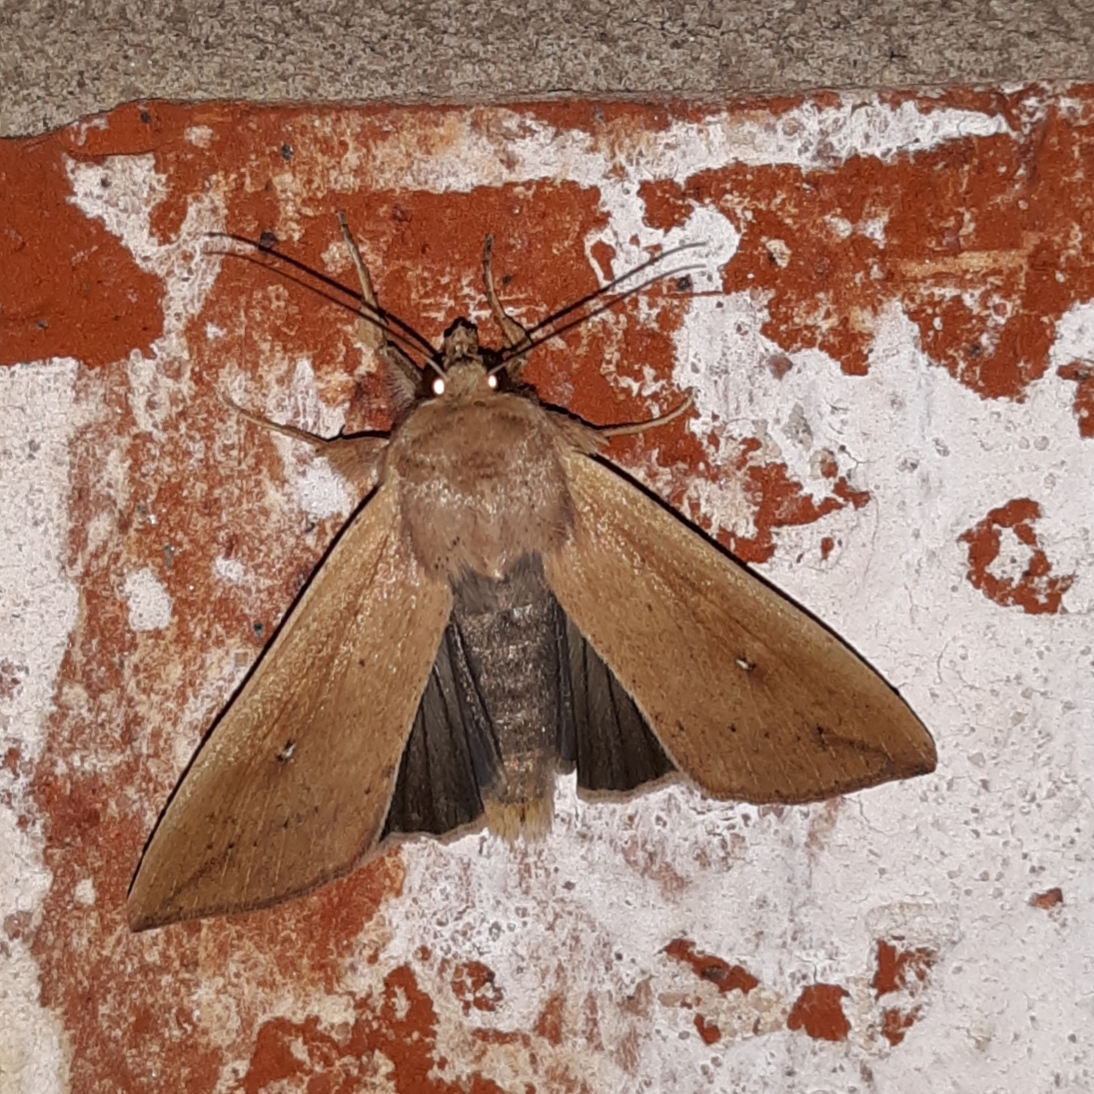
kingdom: Animalia
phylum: Arthropoda
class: Insecta
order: Lepidoptera
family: Noctuidae
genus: Mythimna
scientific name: Mythimna unipuncta
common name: White-speck
